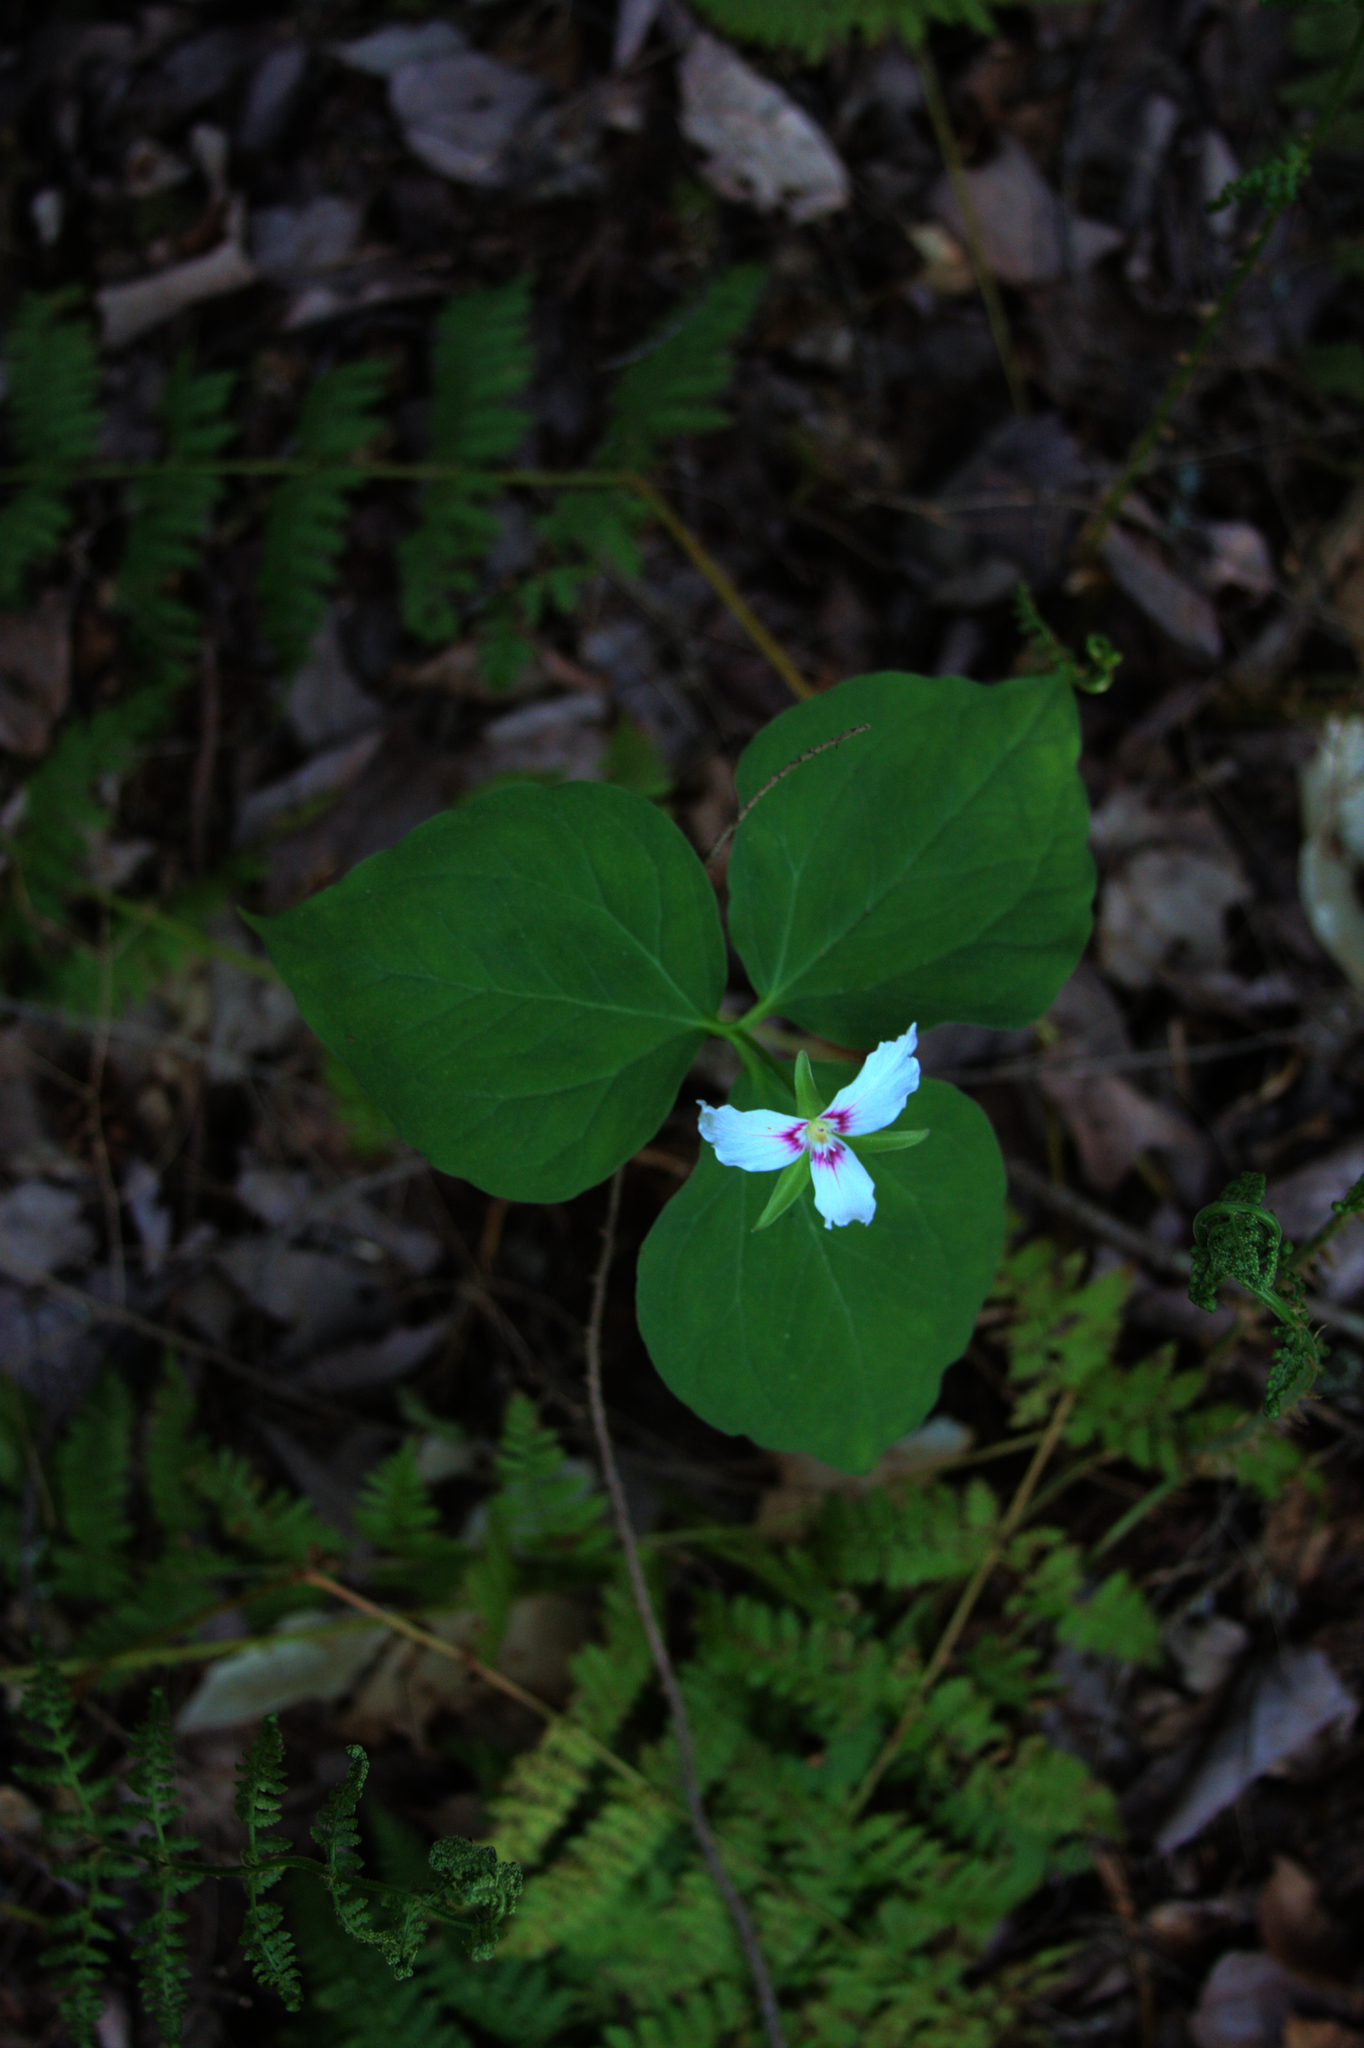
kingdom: Plantae
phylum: Tracheophyta
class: Liliopsida
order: Liliales
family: Melanthiaceae
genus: Trillium
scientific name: Trillium undulatum
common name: Paint trillium
